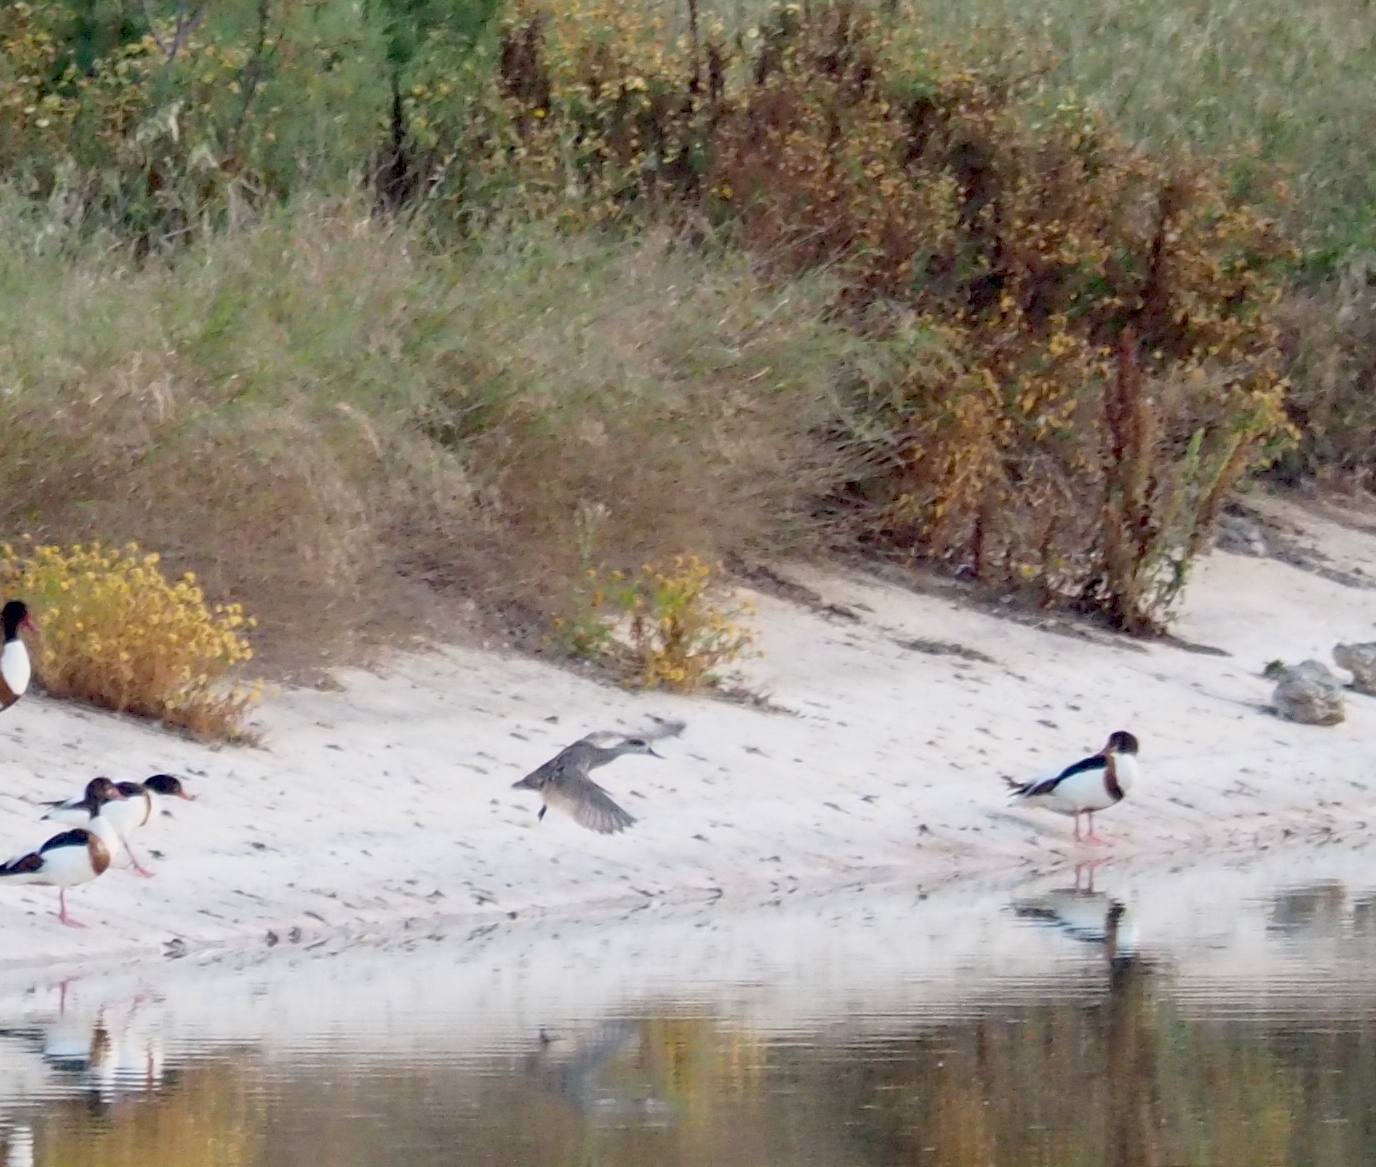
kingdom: Animalia
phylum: Chordata
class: Aves
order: Anseriformes
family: Anatidae
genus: Marmaronetta
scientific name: Marmaronetta angustirostris
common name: Marbled duck
